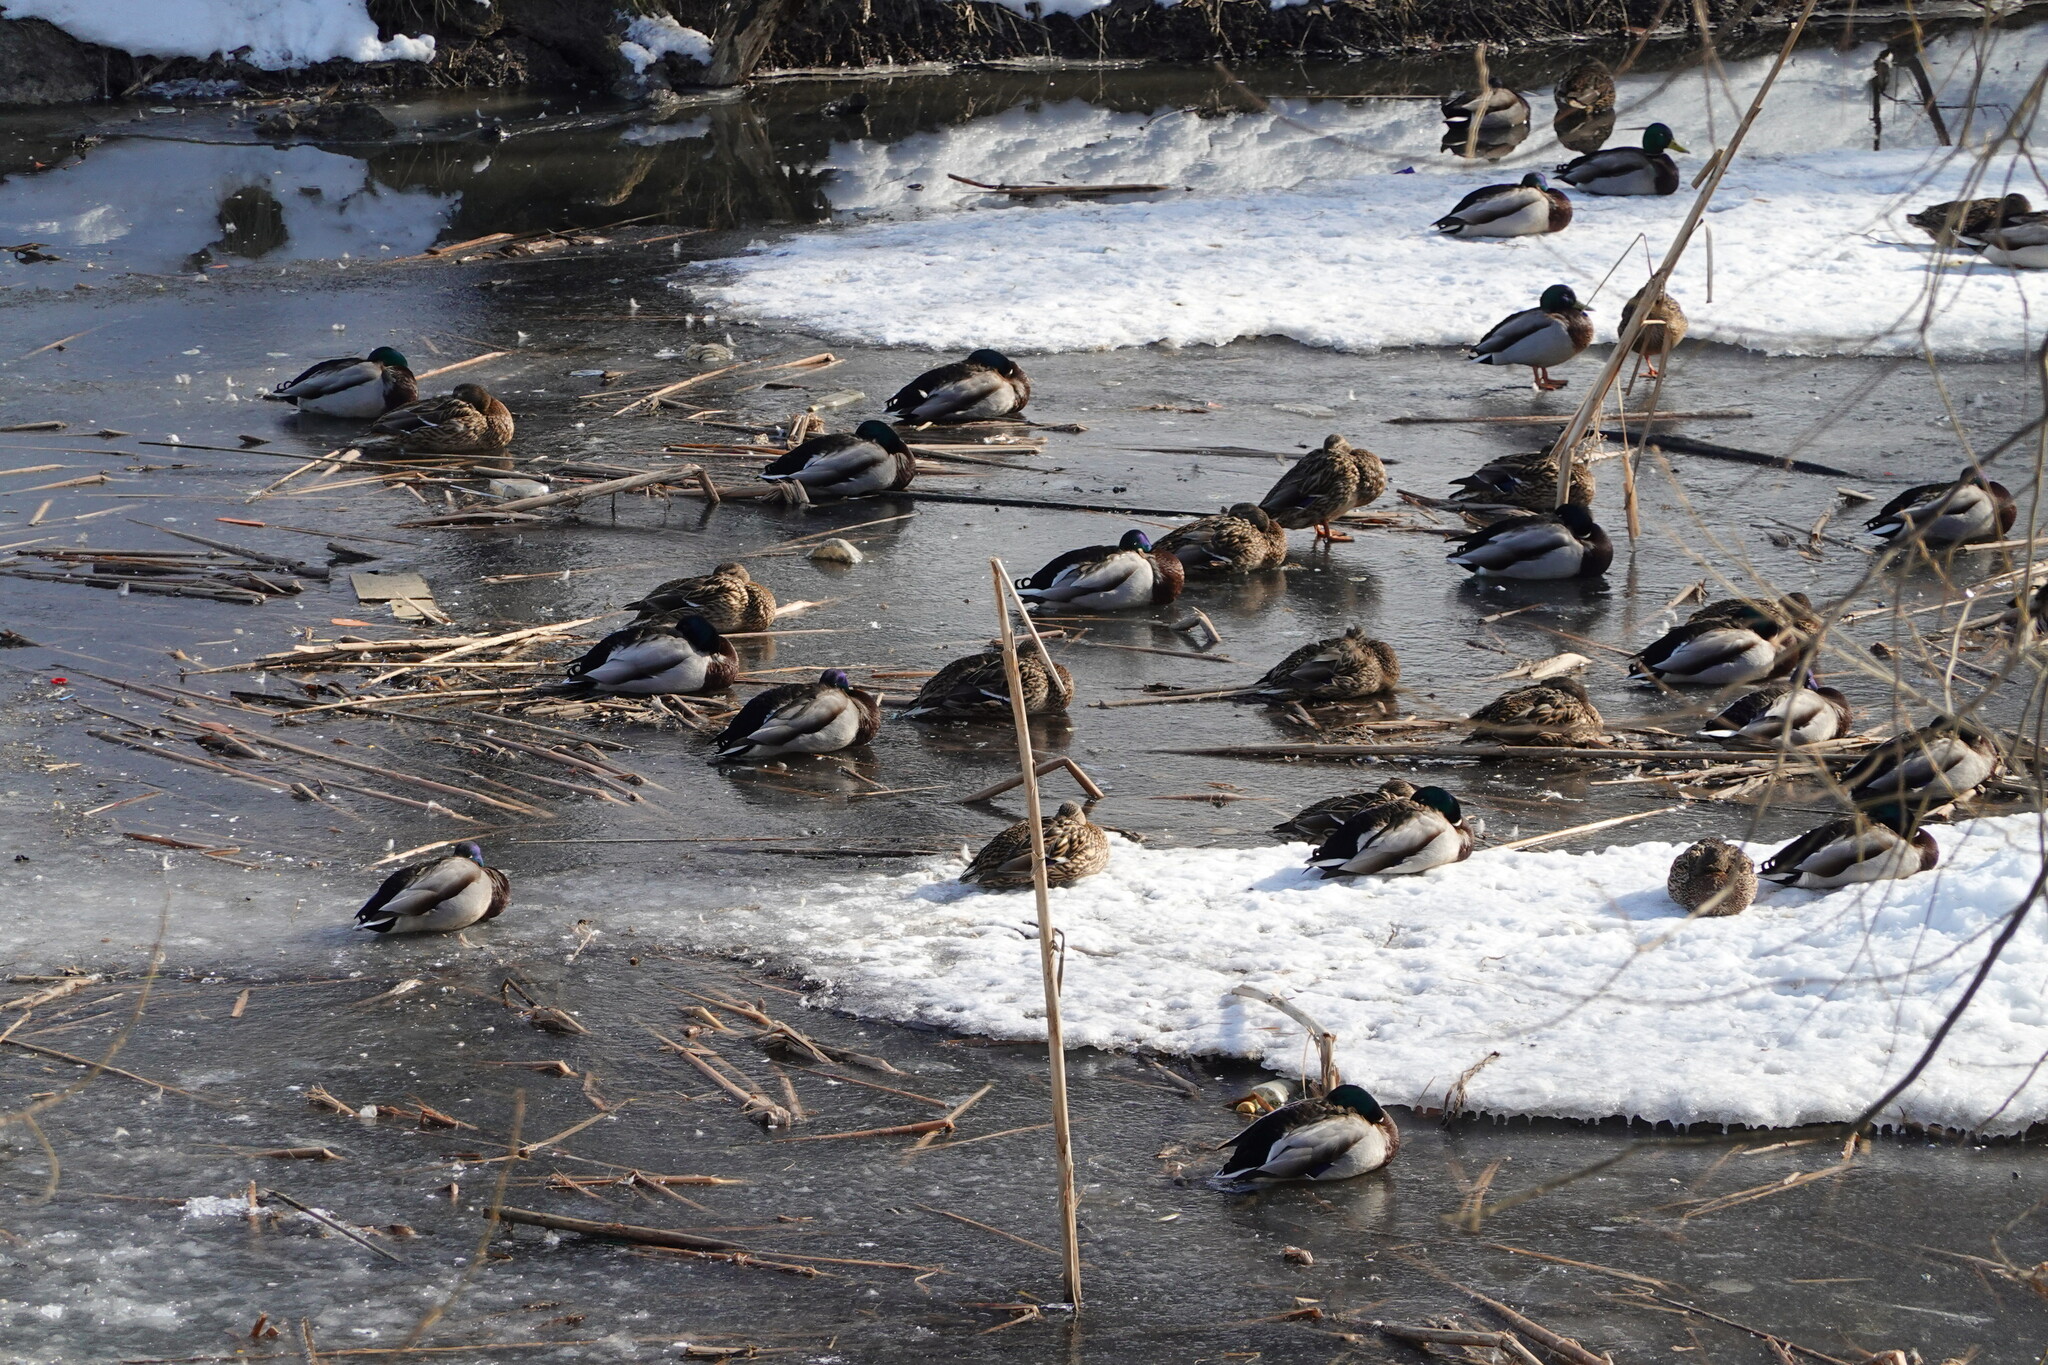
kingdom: Animalia
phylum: Chordata
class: Aves
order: Anseriformes
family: Anatidae
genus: Anas
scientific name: Anas platyrhynchos
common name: Mallard
